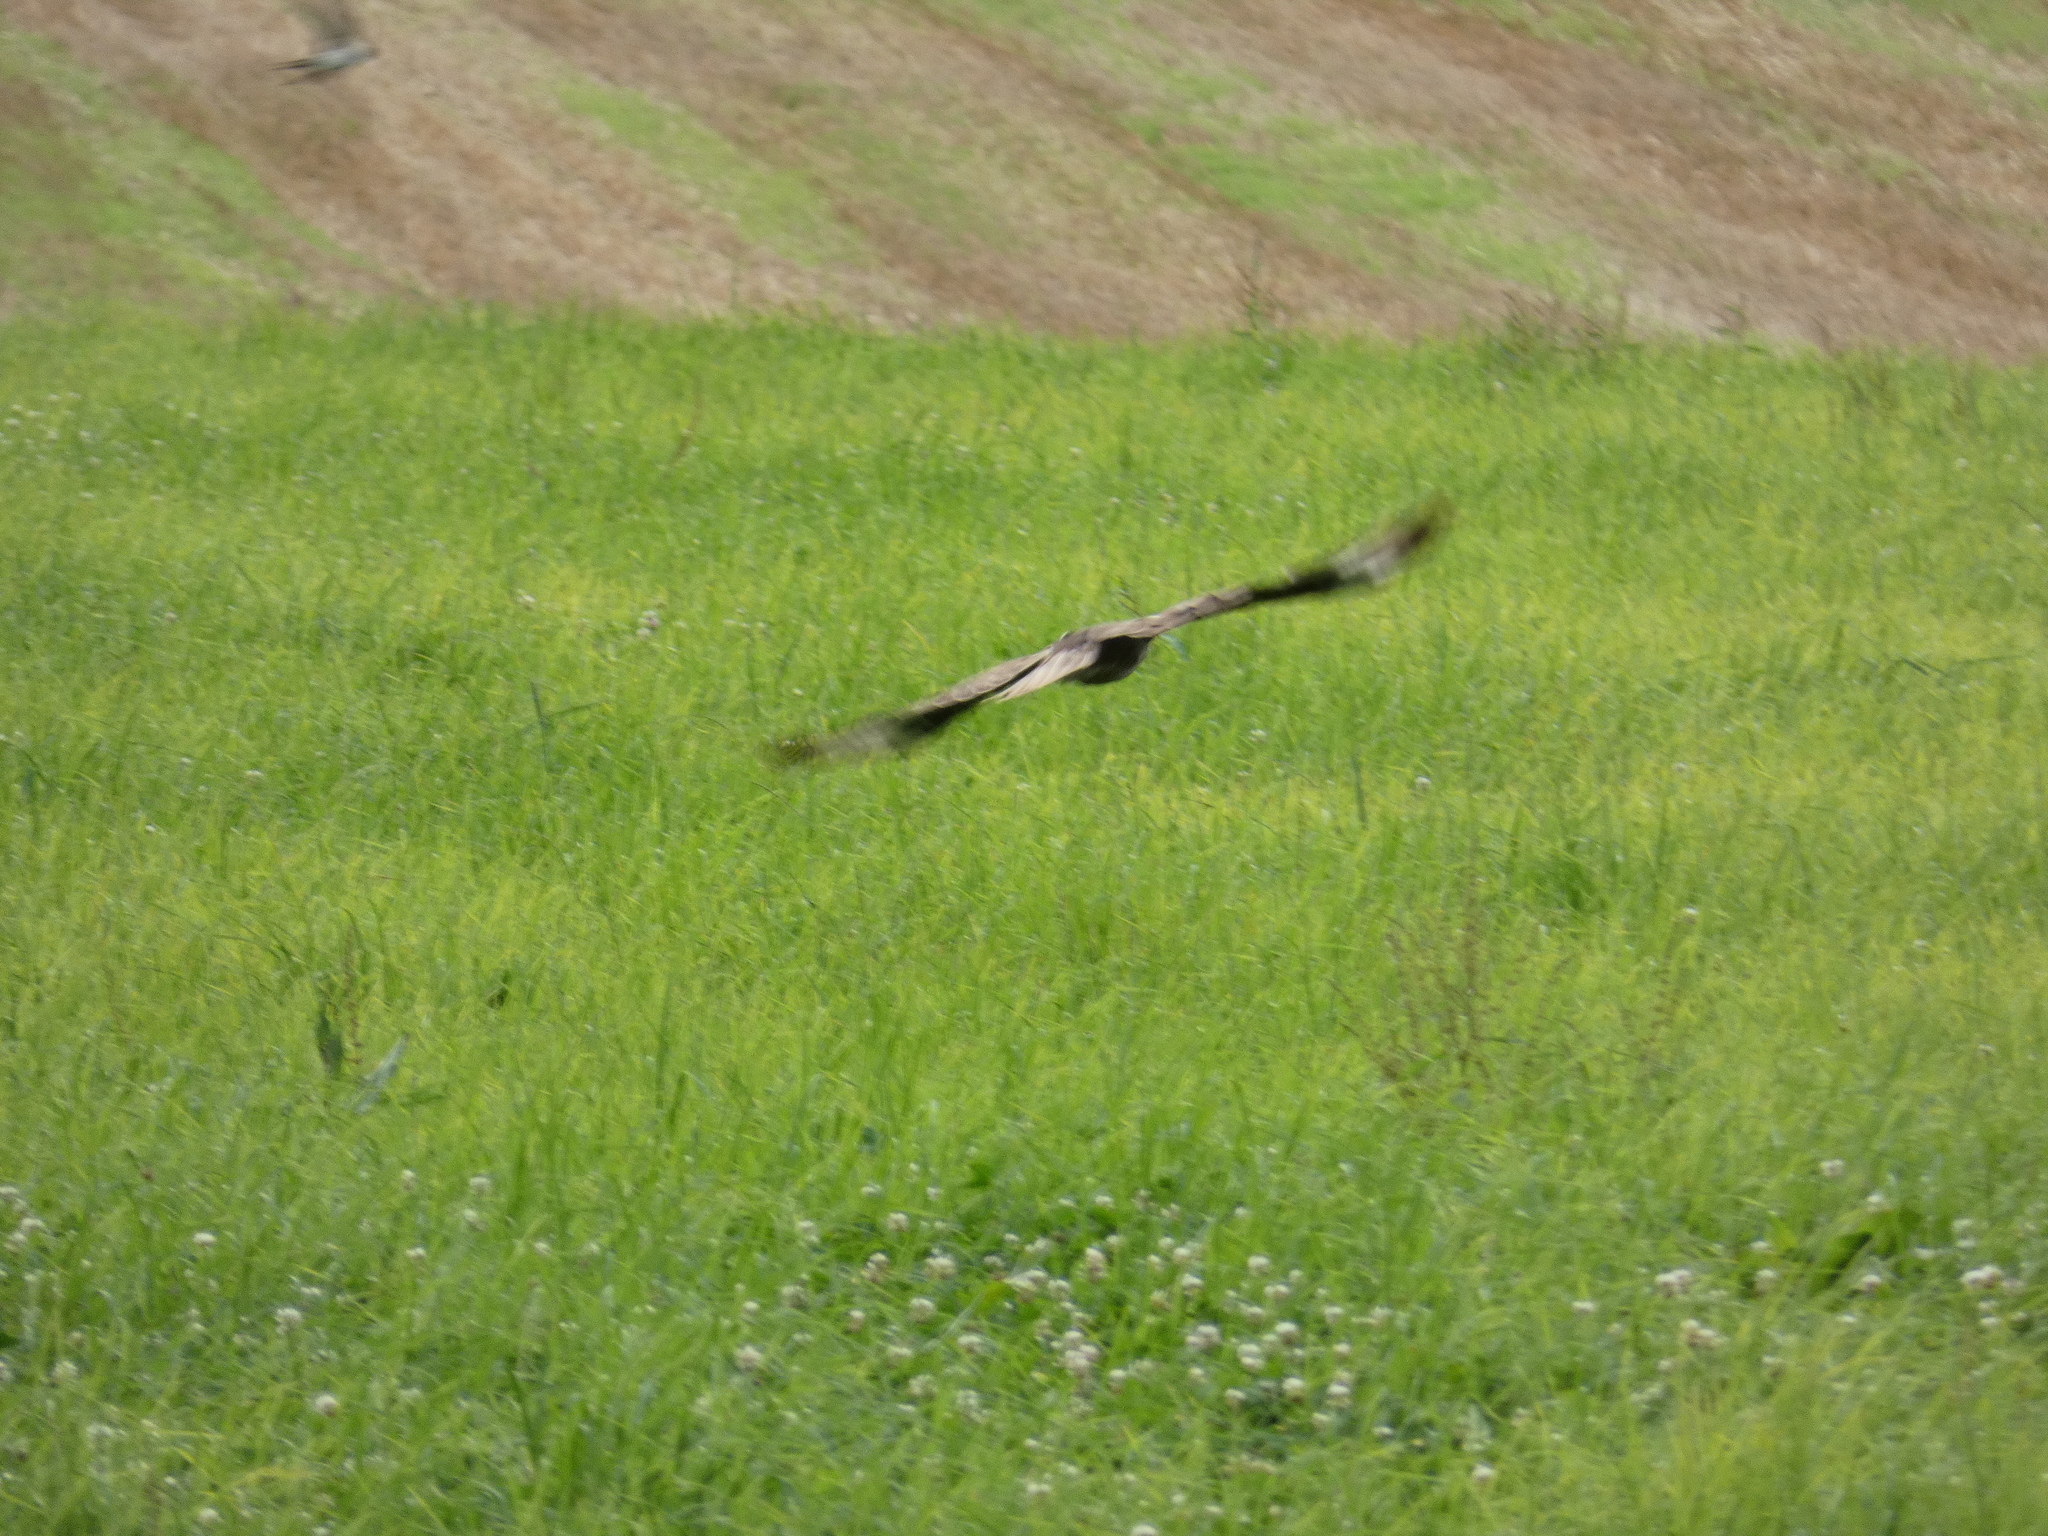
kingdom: Animalia
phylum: Chordata
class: Aves
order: Accipitriformes
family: Accipitridae
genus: Buteo
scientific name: Buteo buteo
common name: Common buzzard
